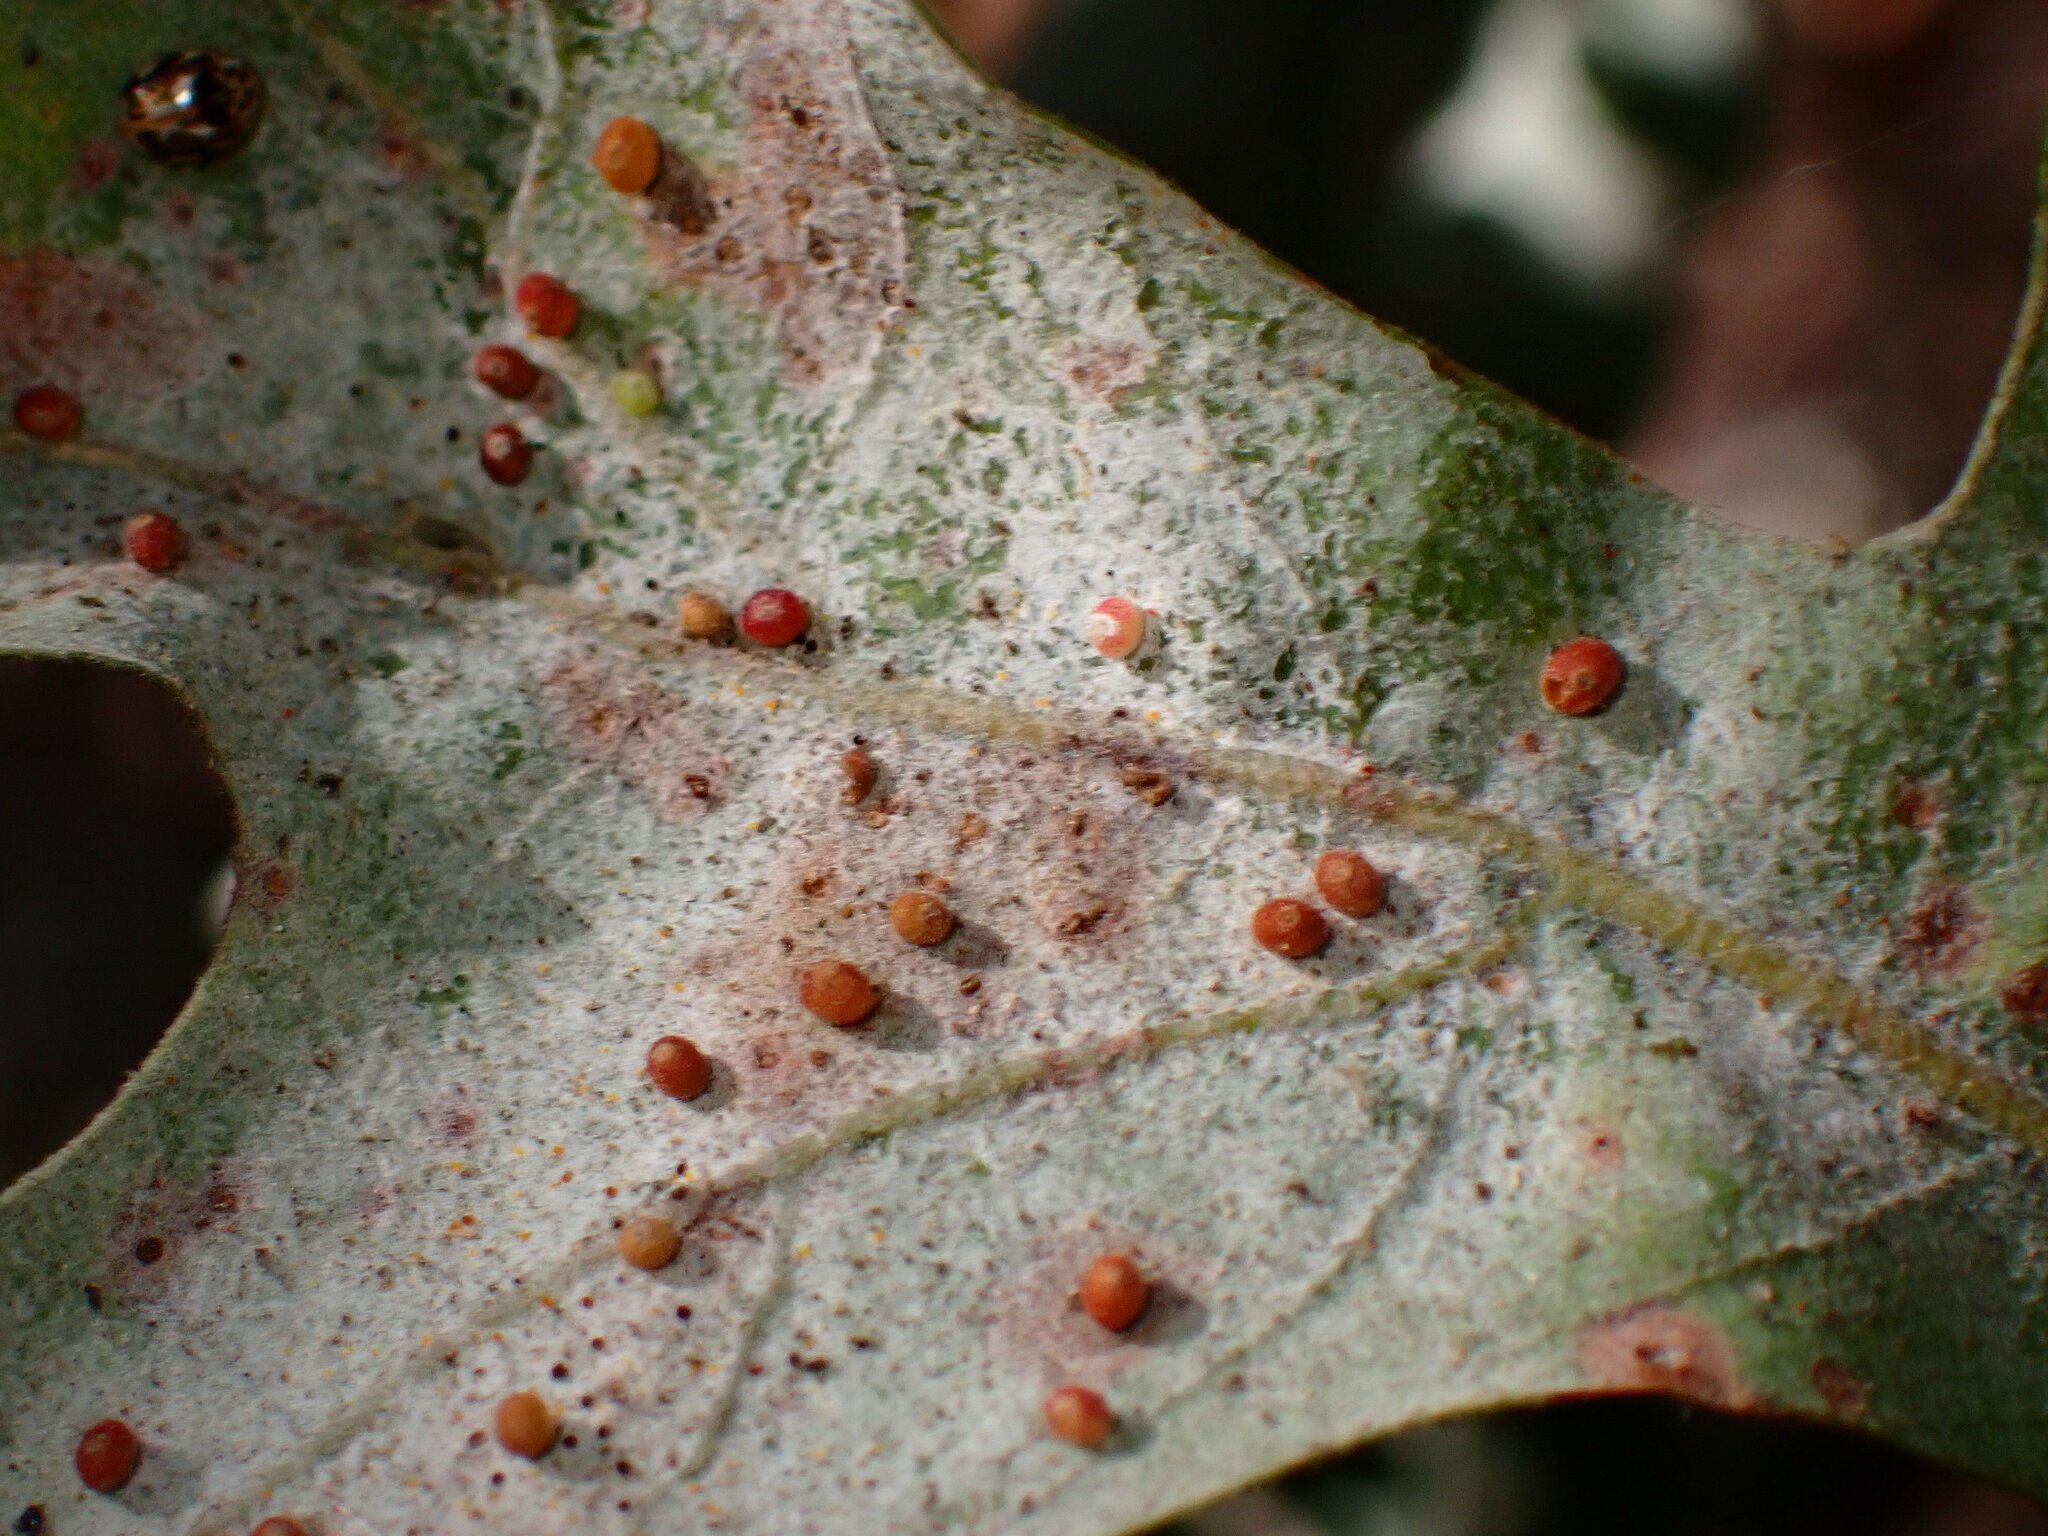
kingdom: Animalia
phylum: Arthropoda
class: Insecta
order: Hymenoptera
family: Cynipidae
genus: Neuroterus
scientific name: Neuroterus saltarius
